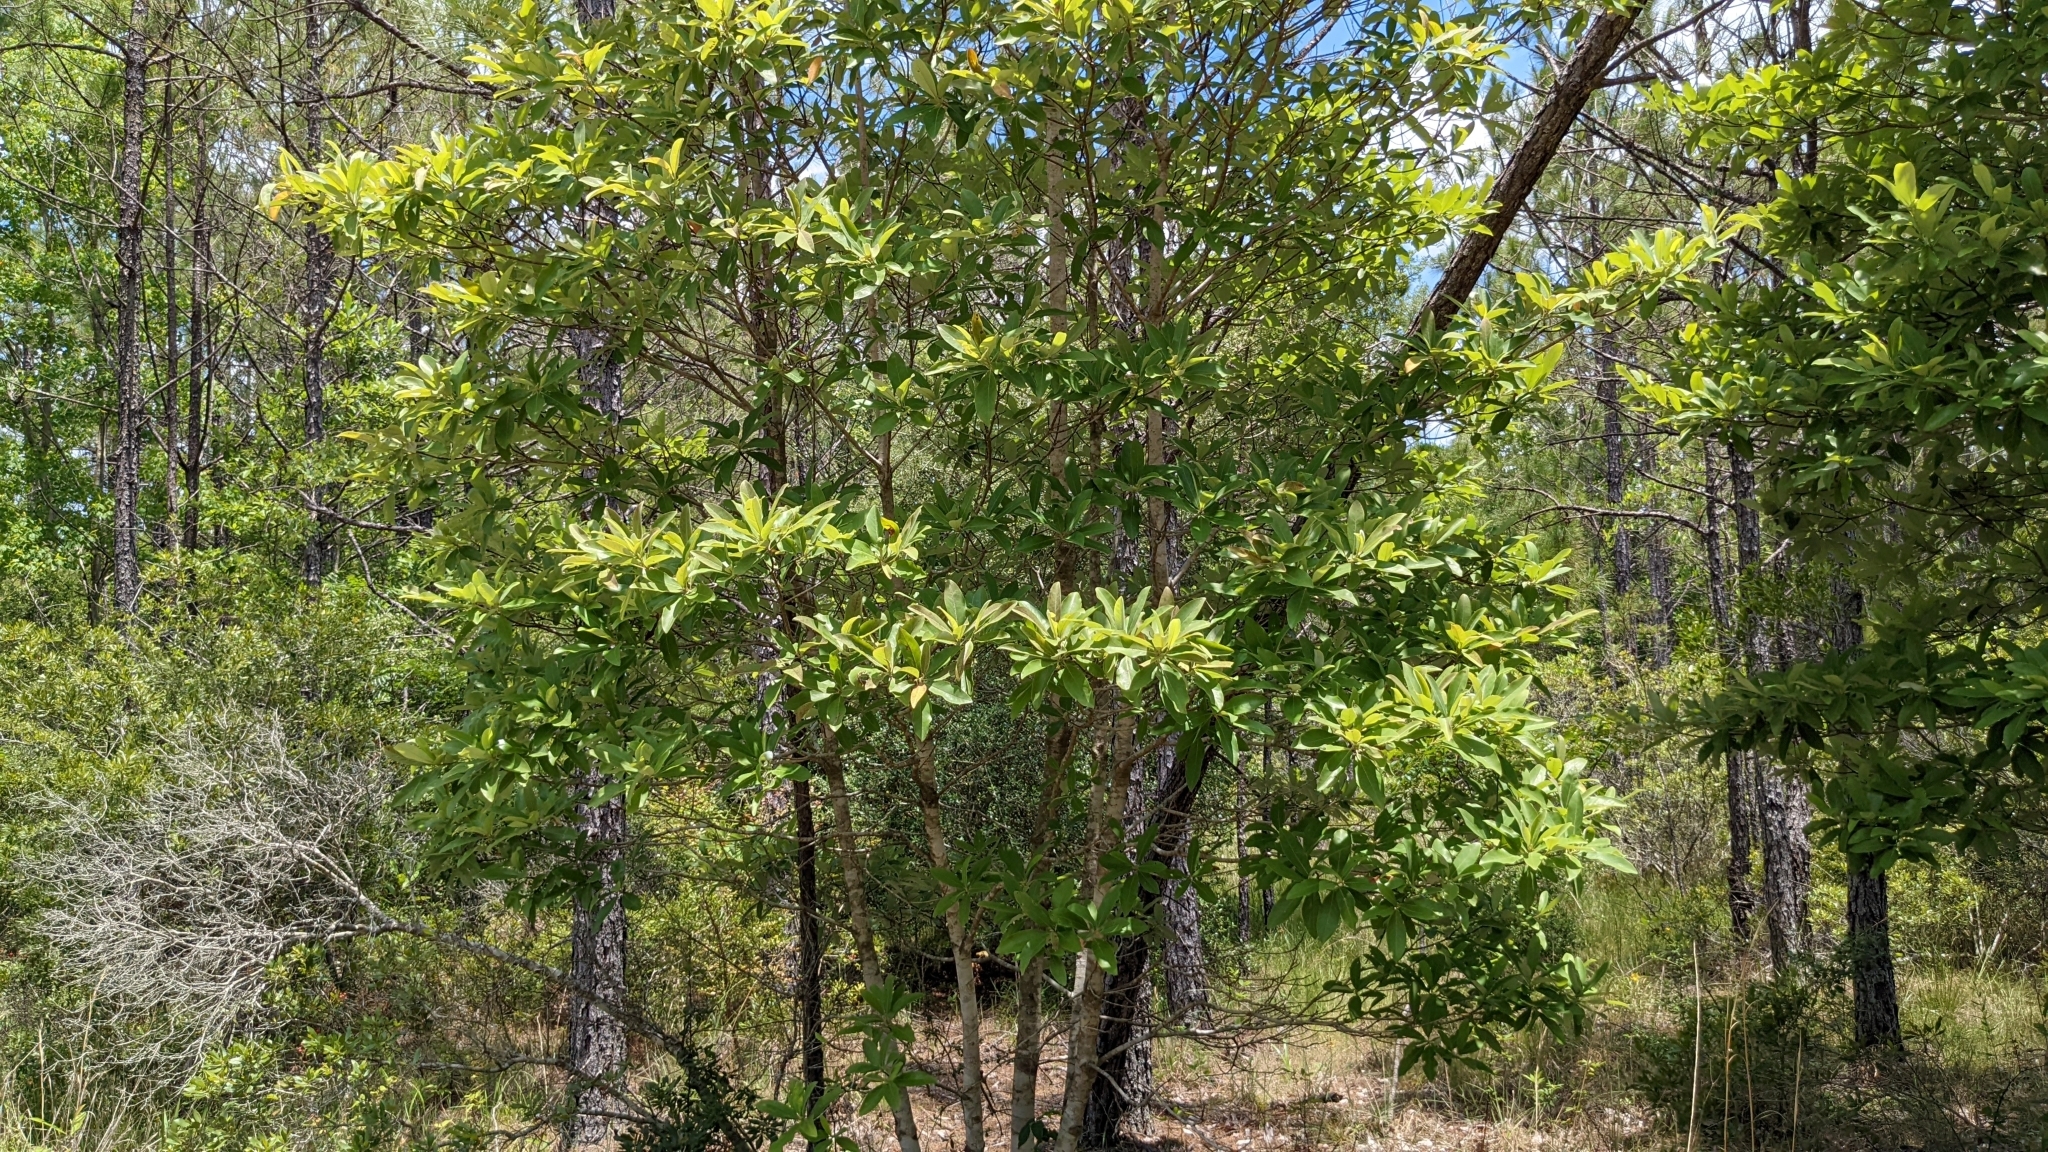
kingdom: Plantae
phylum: Tracheophyta
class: Magnoliopsida
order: Magnoliales
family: Magnoliaceae
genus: Magnolia
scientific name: Magnolia virginiana
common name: Swamp bay
